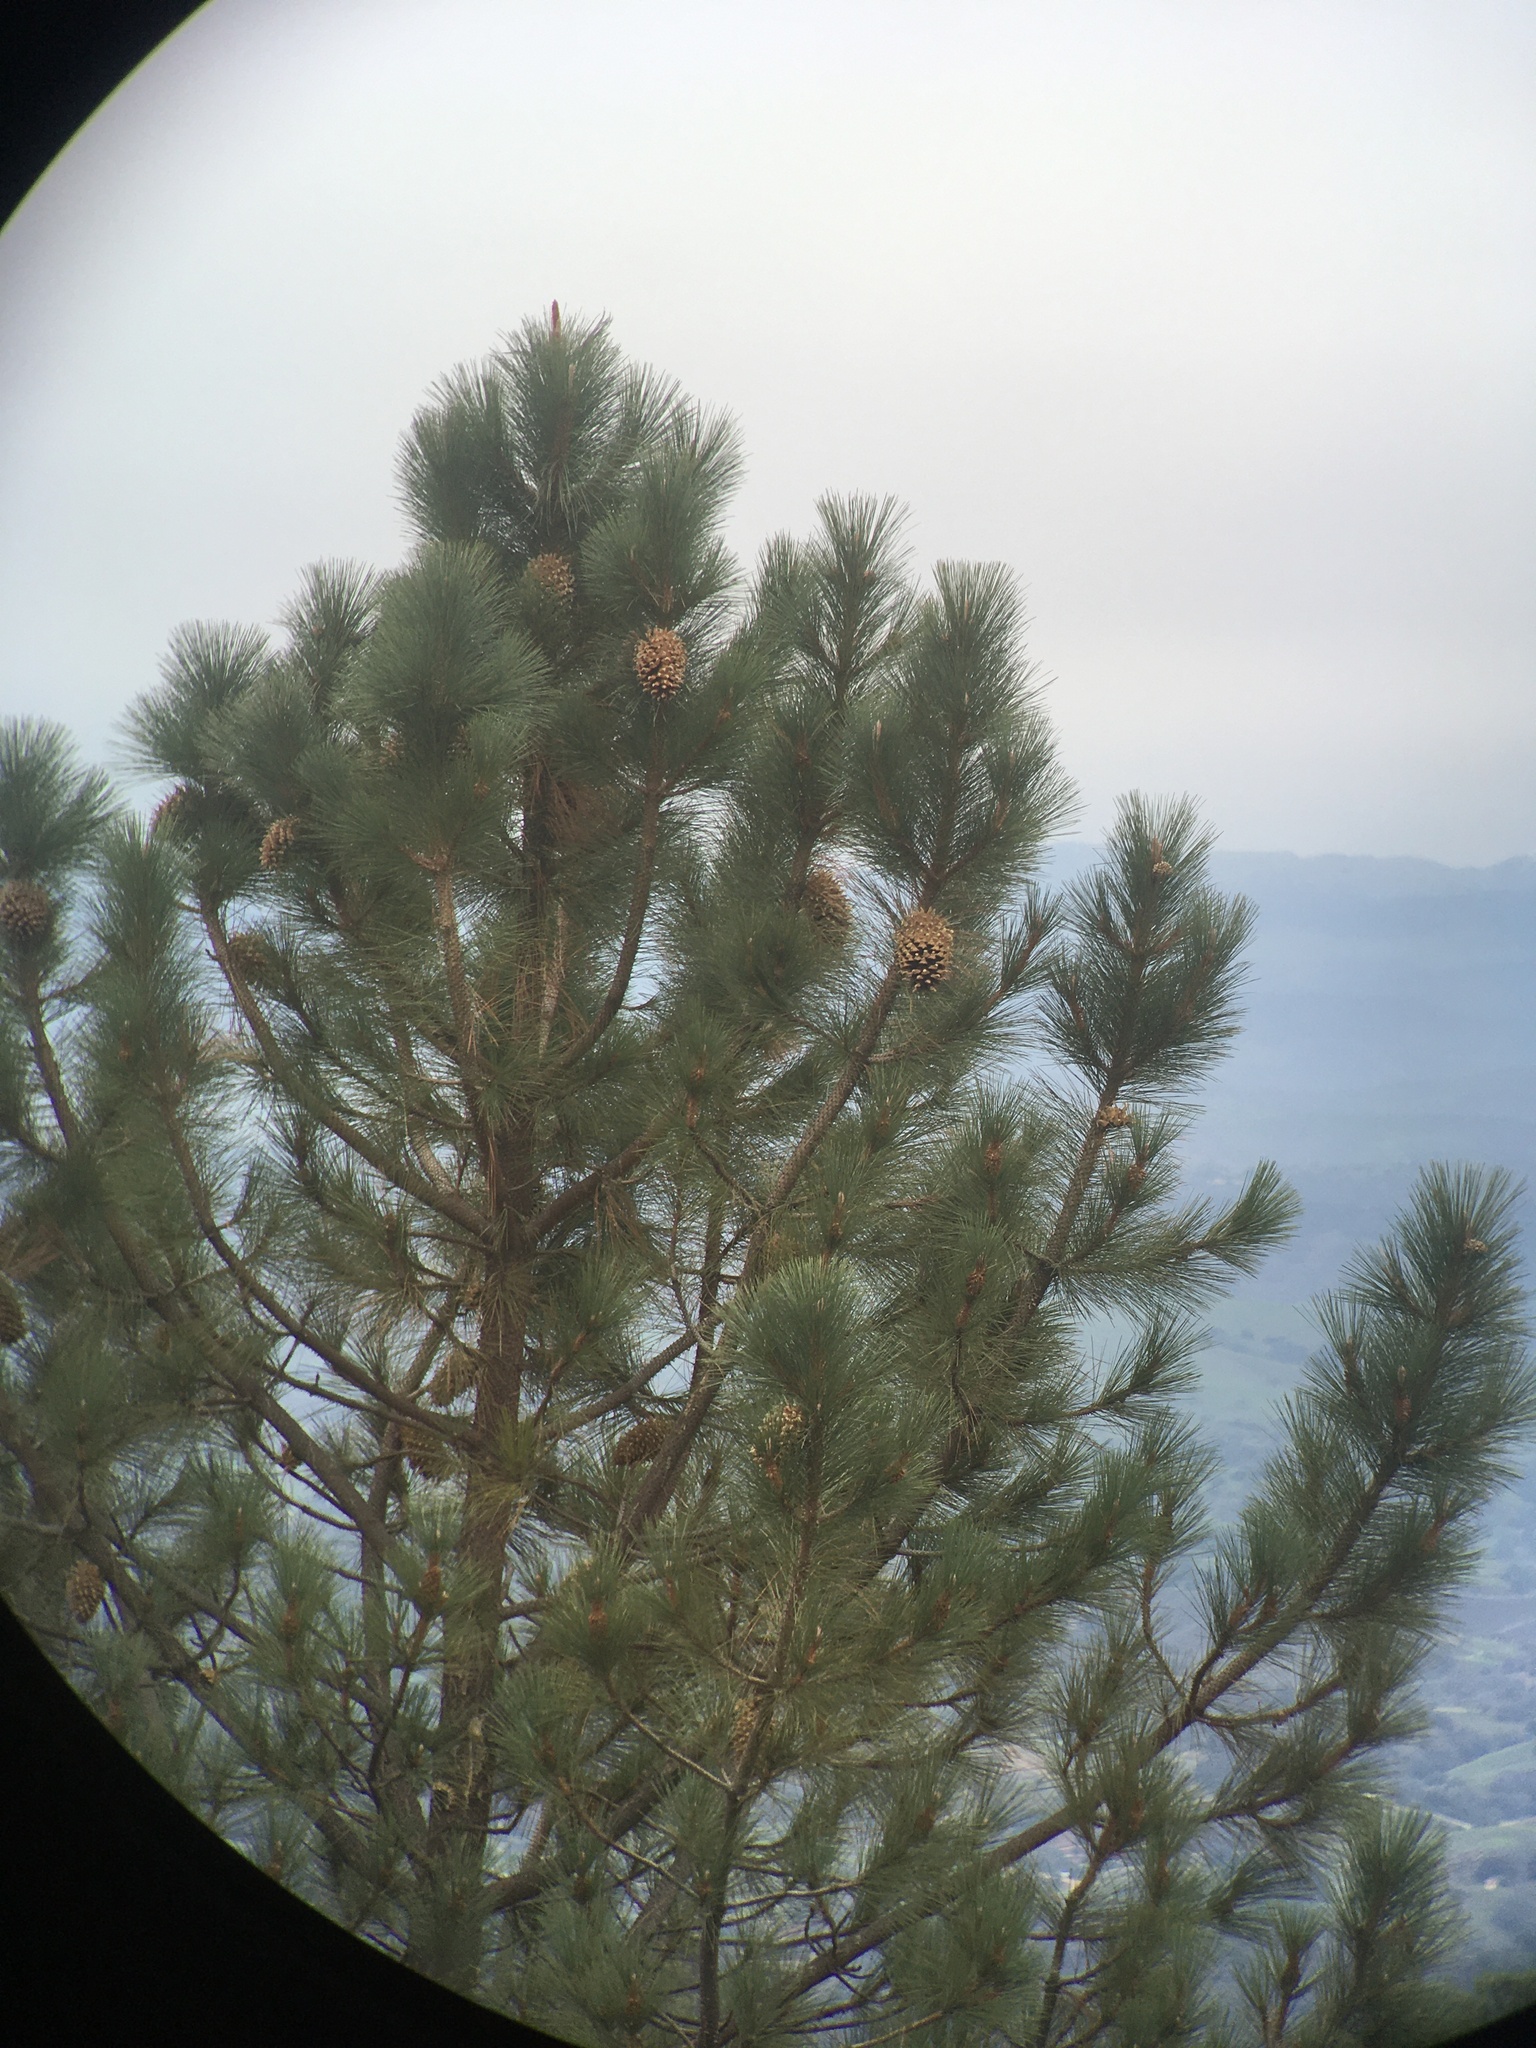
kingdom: Plantae
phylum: Tracheophyta
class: Pinopsida
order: Pinales
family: Pinaceae
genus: Pinus
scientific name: Pinus coulteri
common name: Coulter pine
